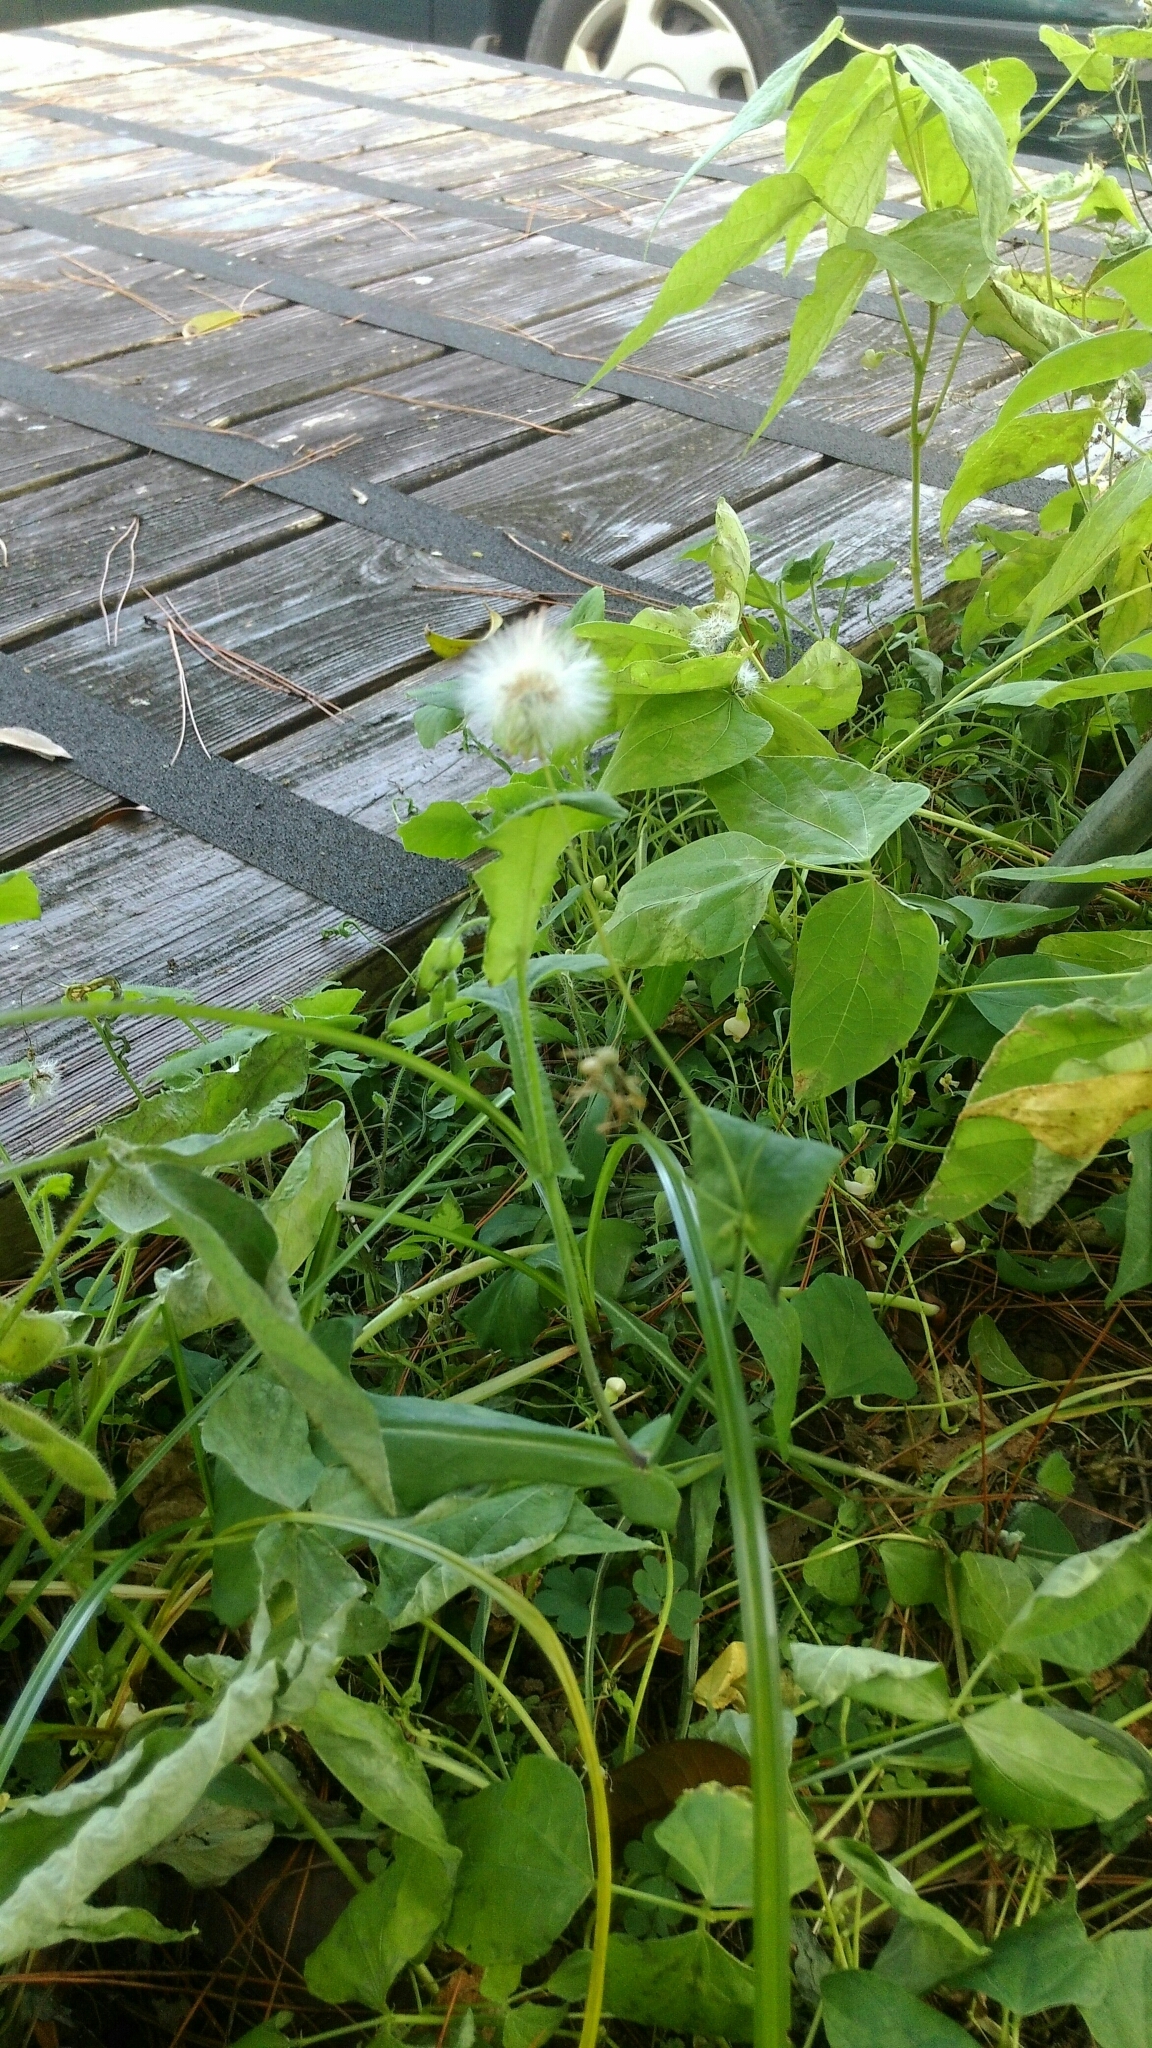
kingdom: Plantae
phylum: Tracheophyta
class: Magnoliopsida
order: Asterales
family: Asteraceae
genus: Emilia
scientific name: Emilia javanica
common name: Tassel-flower
